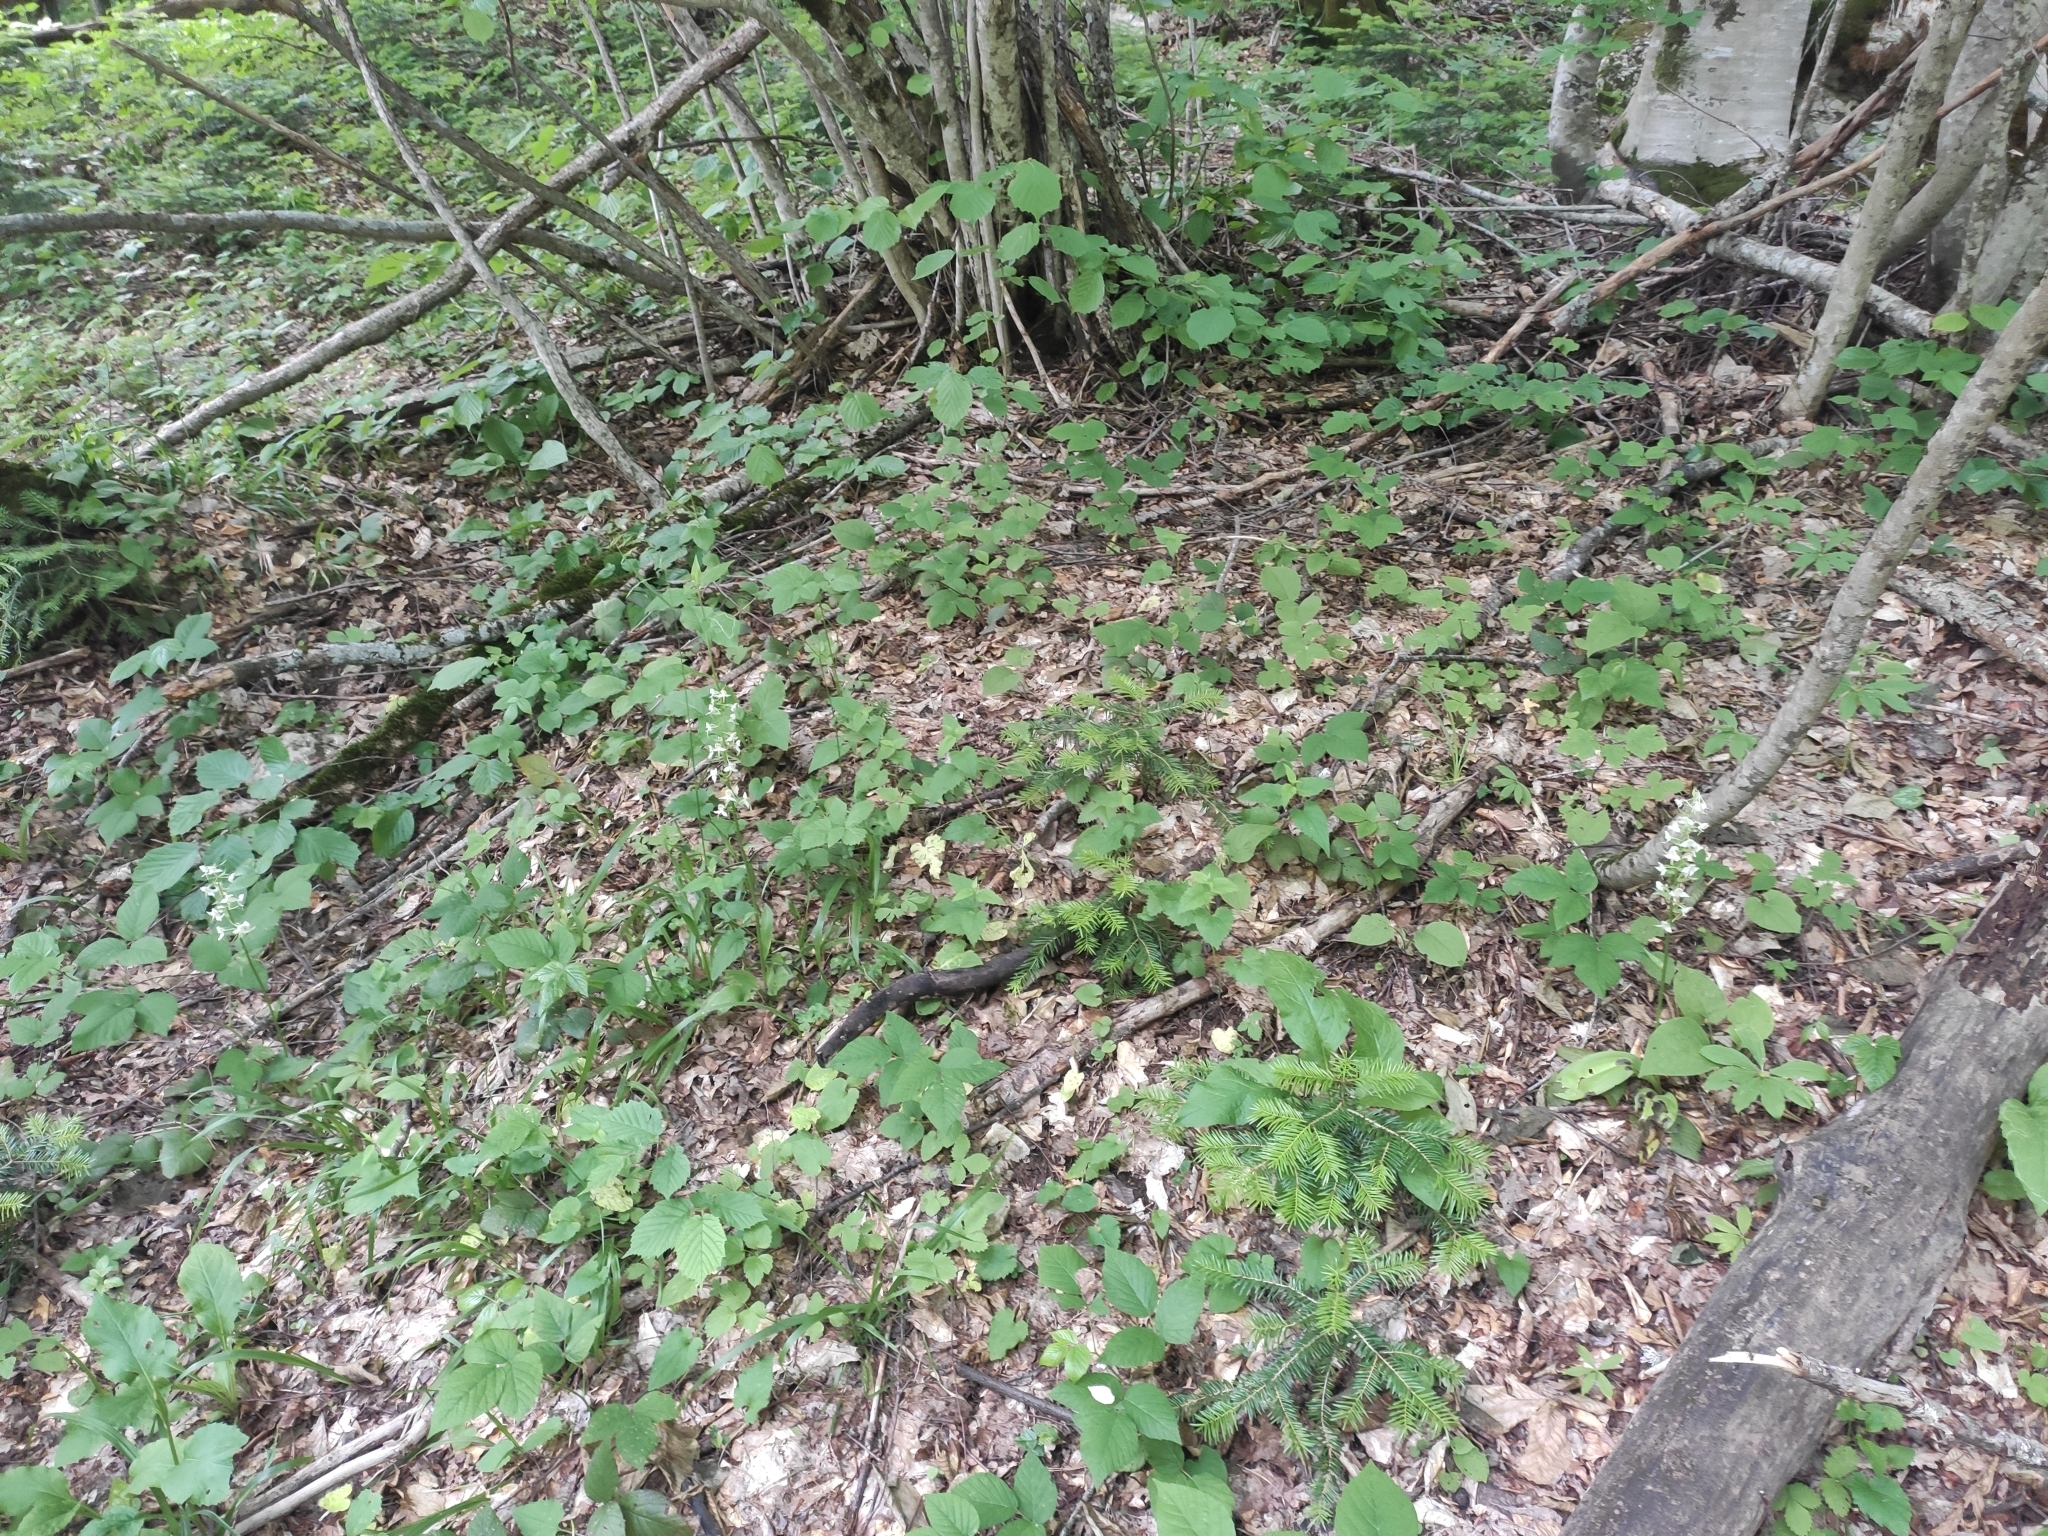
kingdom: Plantae
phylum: Tracheophyta
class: Liliopsida
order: Asparagales
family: Orchidaceae
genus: Platanthera
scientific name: Platanthera chlorantha
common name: Greater butterfly-orchid
